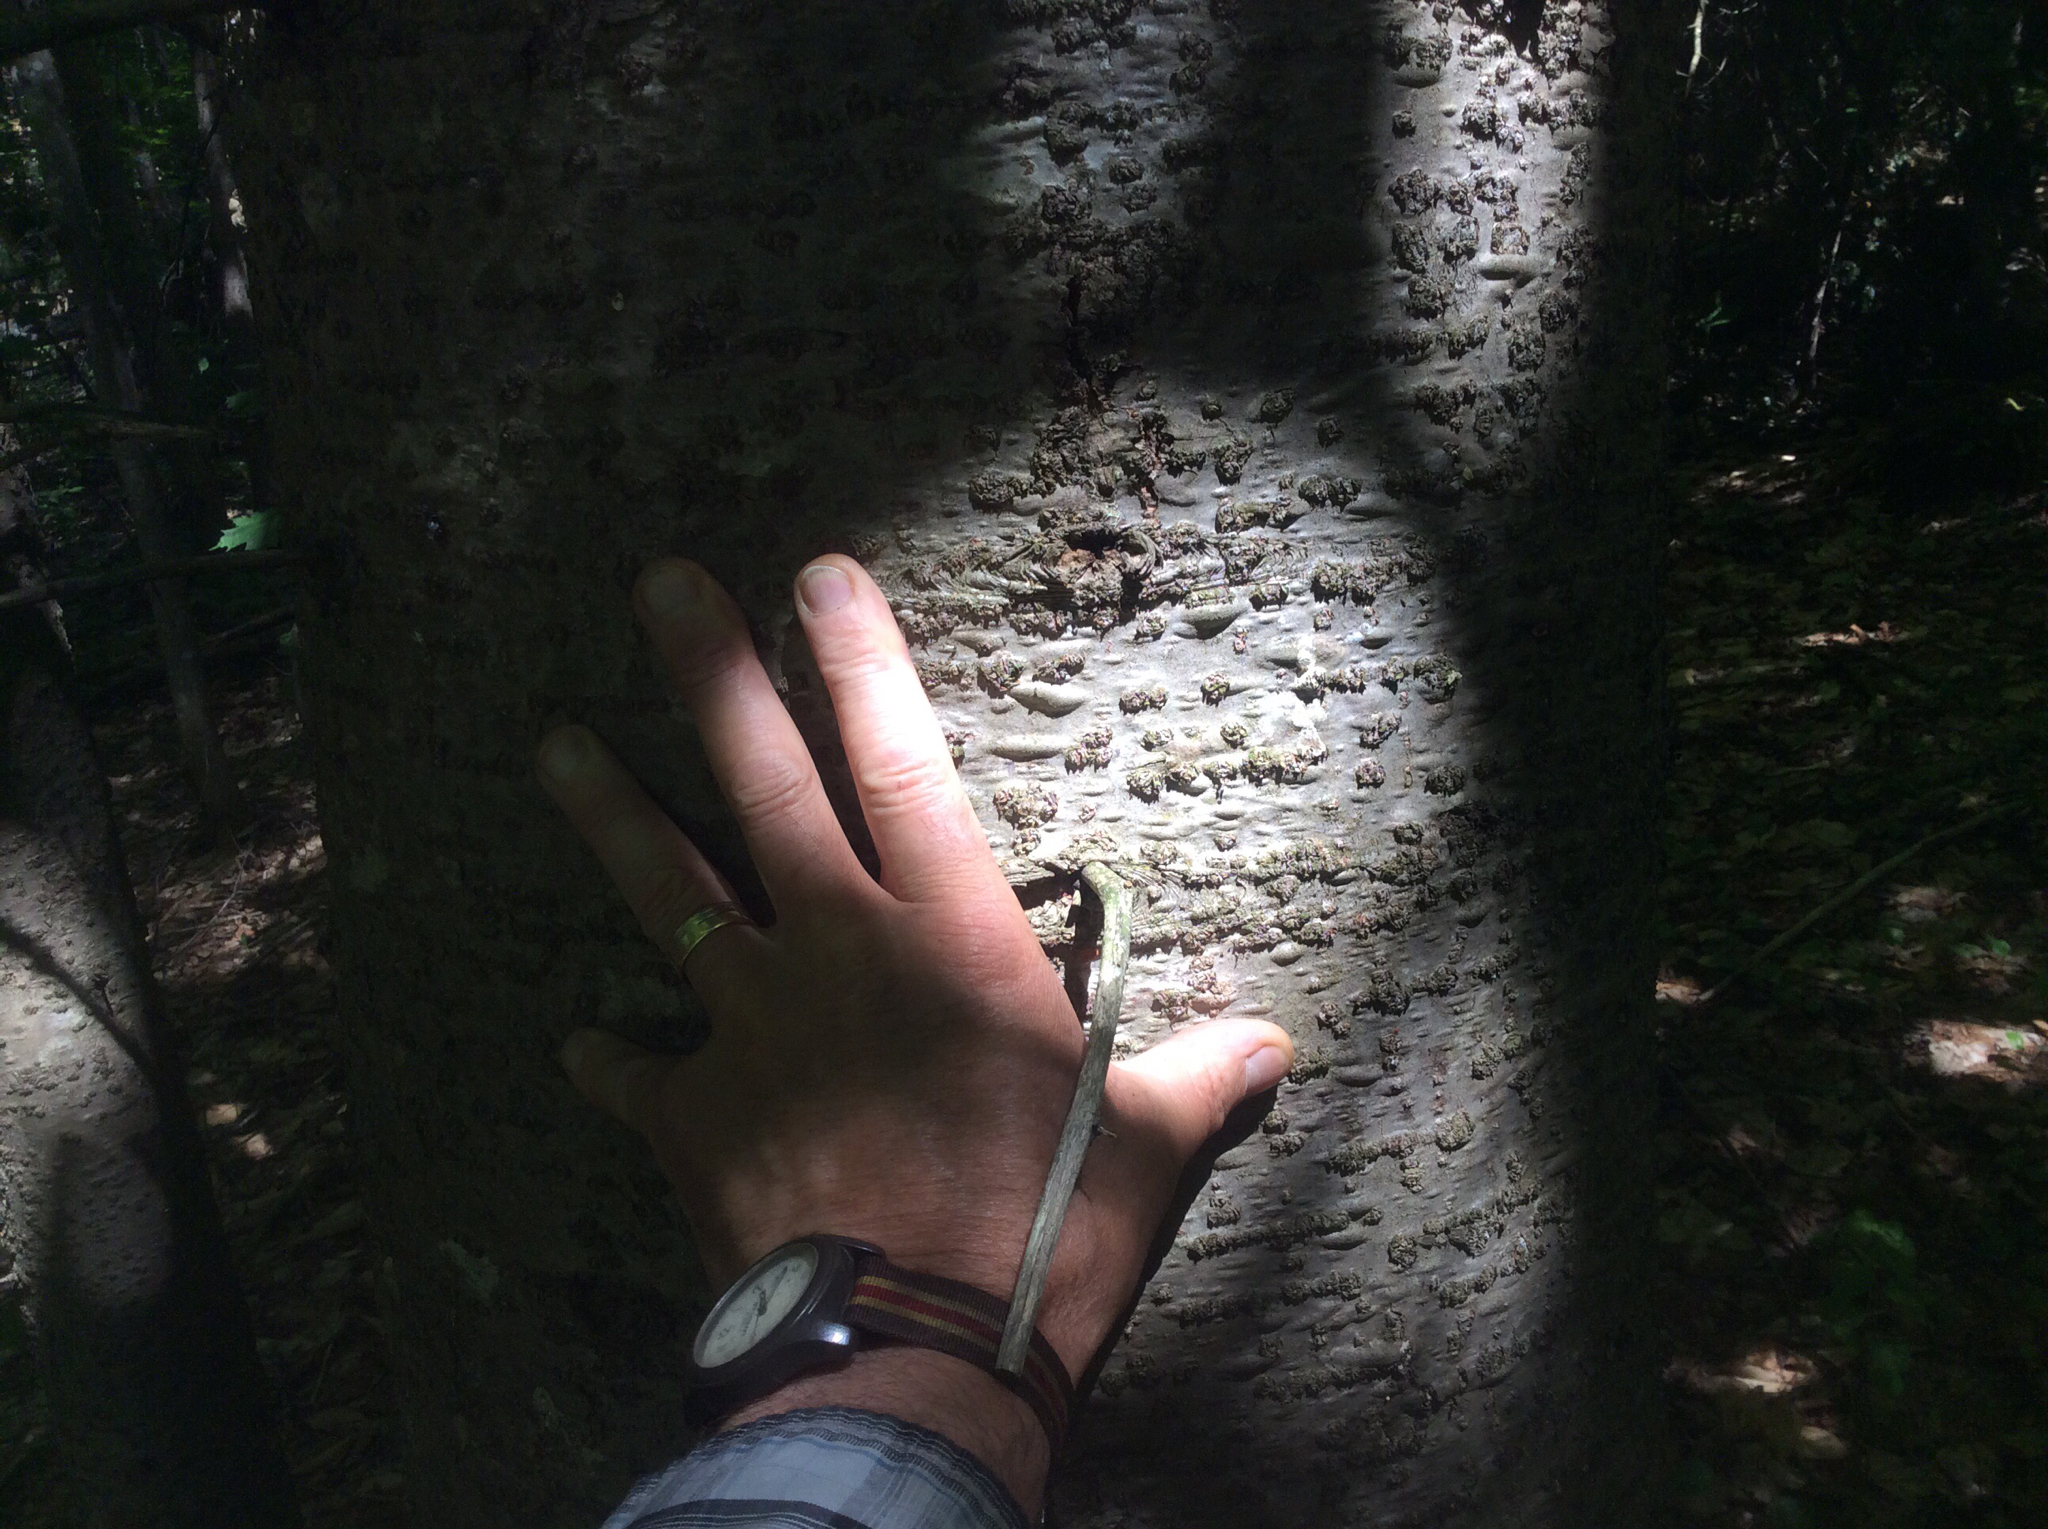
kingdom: Plantae
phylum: Tracheophyta
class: Pinopsida
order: Pinales
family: Pinaceae
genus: Abies
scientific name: Abies balsamea
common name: Balsam fir
